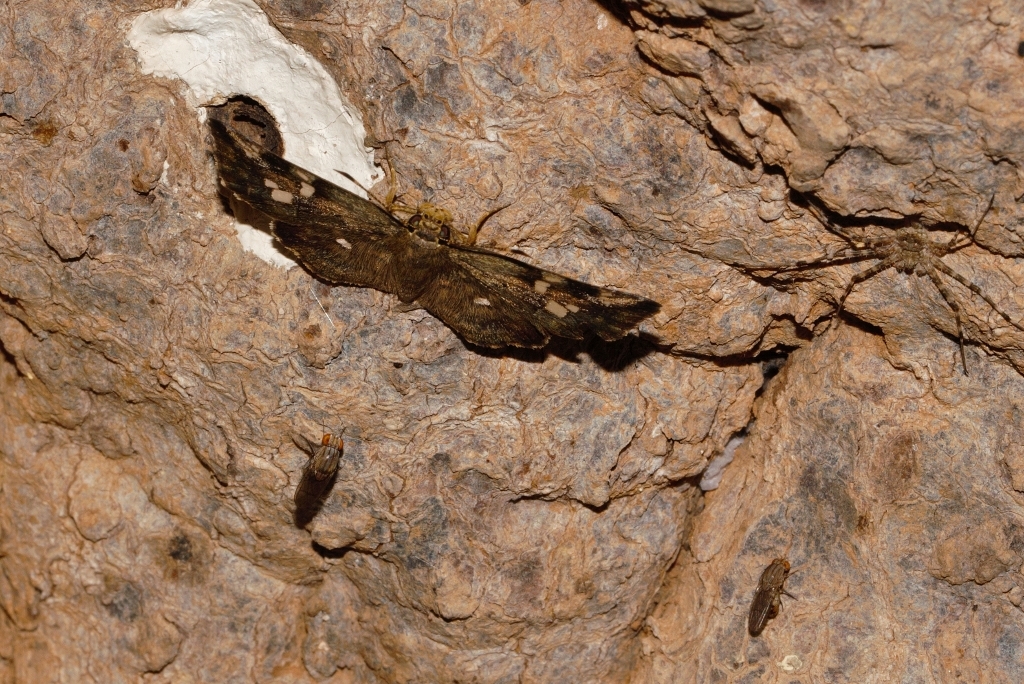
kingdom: Animalia
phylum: Arthropoda
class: Insecta
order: Lepidoptera
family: Hesperiidae
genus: Sarangesa
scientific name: Sarangesa motozi
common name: Forest elfin
